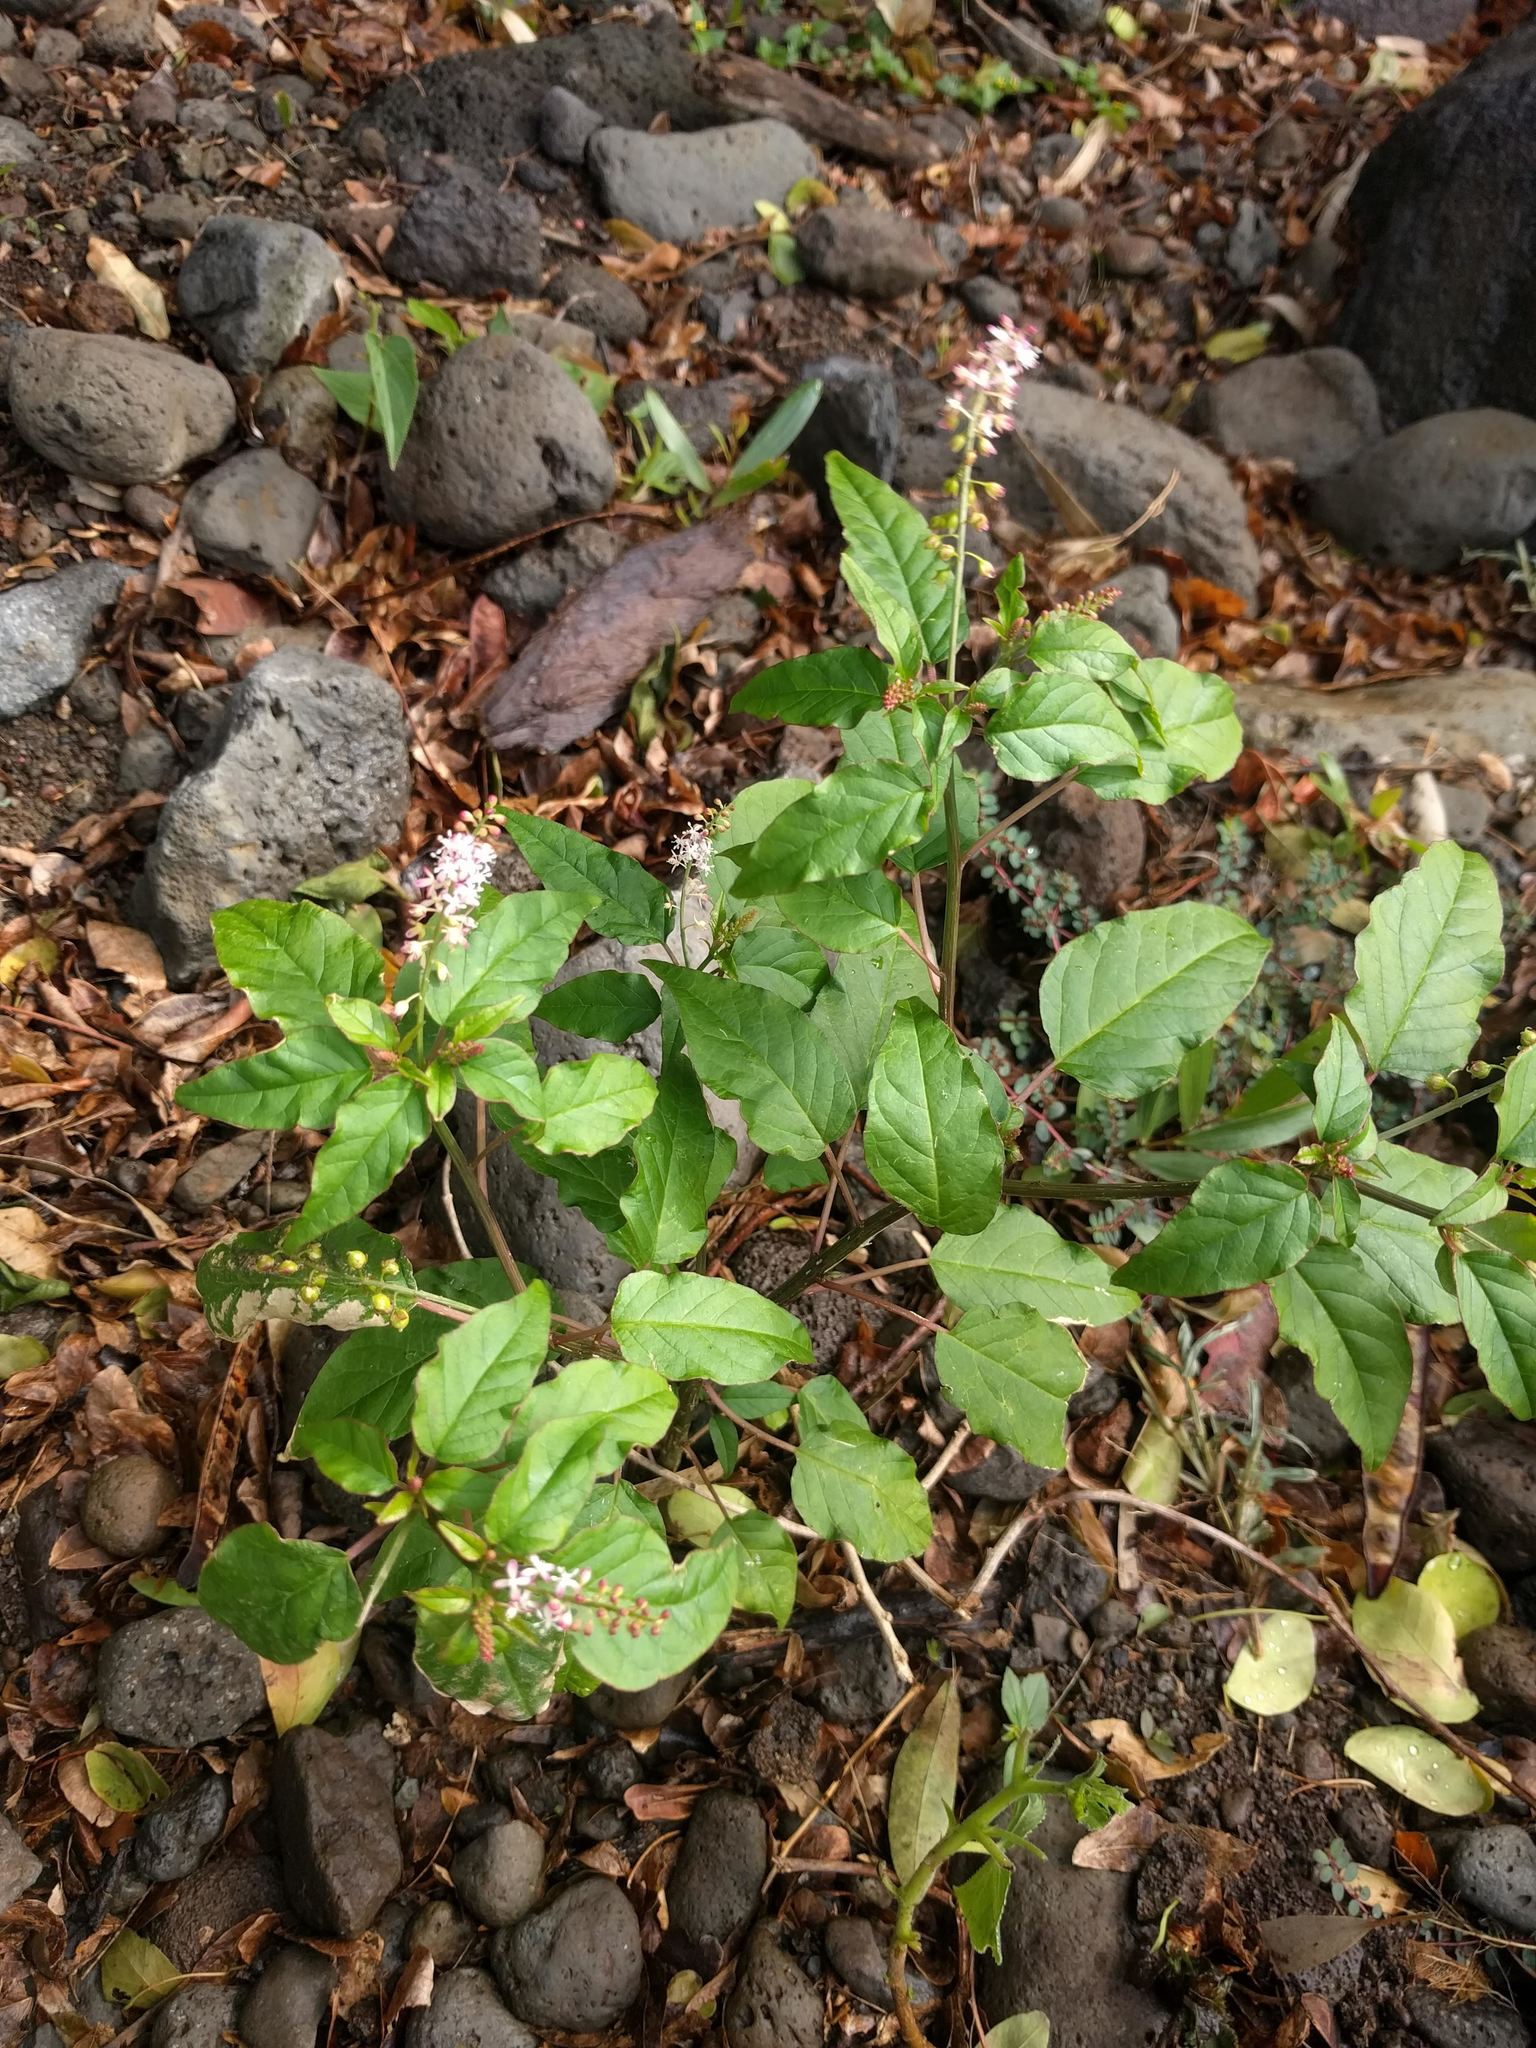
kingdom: Plantae
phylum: Tracheophyta
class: Magnoliopsida
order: Caryophyllales
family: Phytolaccaceae
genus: Rivina
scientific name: Rivina humilis
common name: Rougeplant
